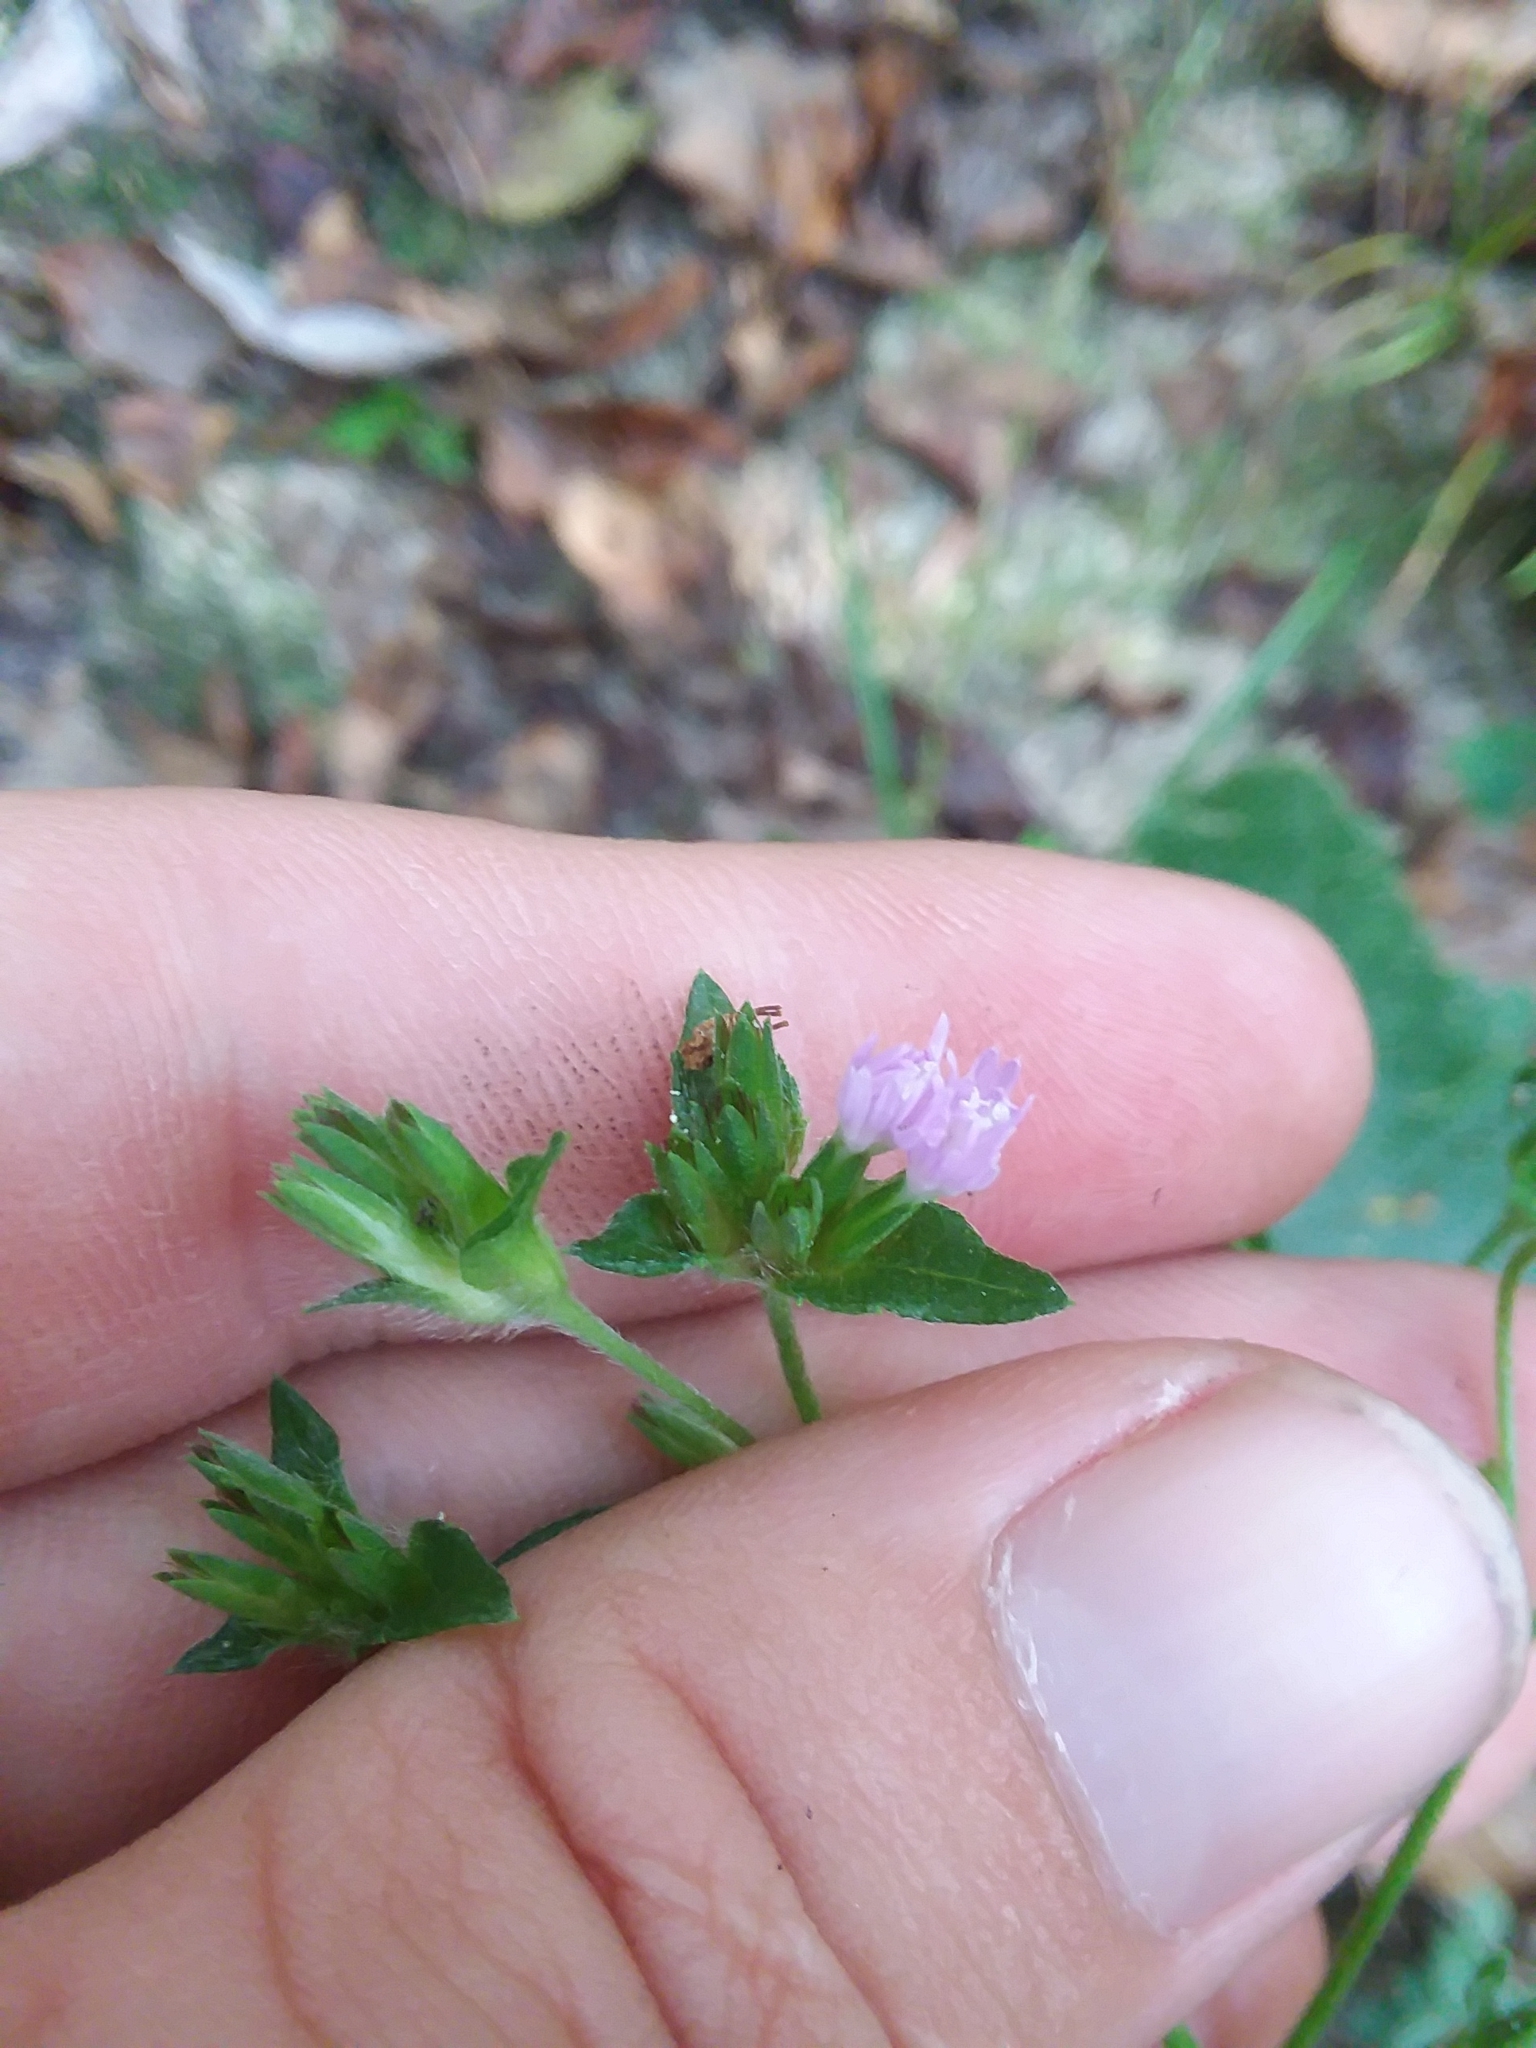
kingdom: Plantae
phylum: Tracheophyta
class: Magnoliopsida
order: Asterales
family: Asteraceae
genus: Elephantopus
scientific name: Elephantopus carolinianus
